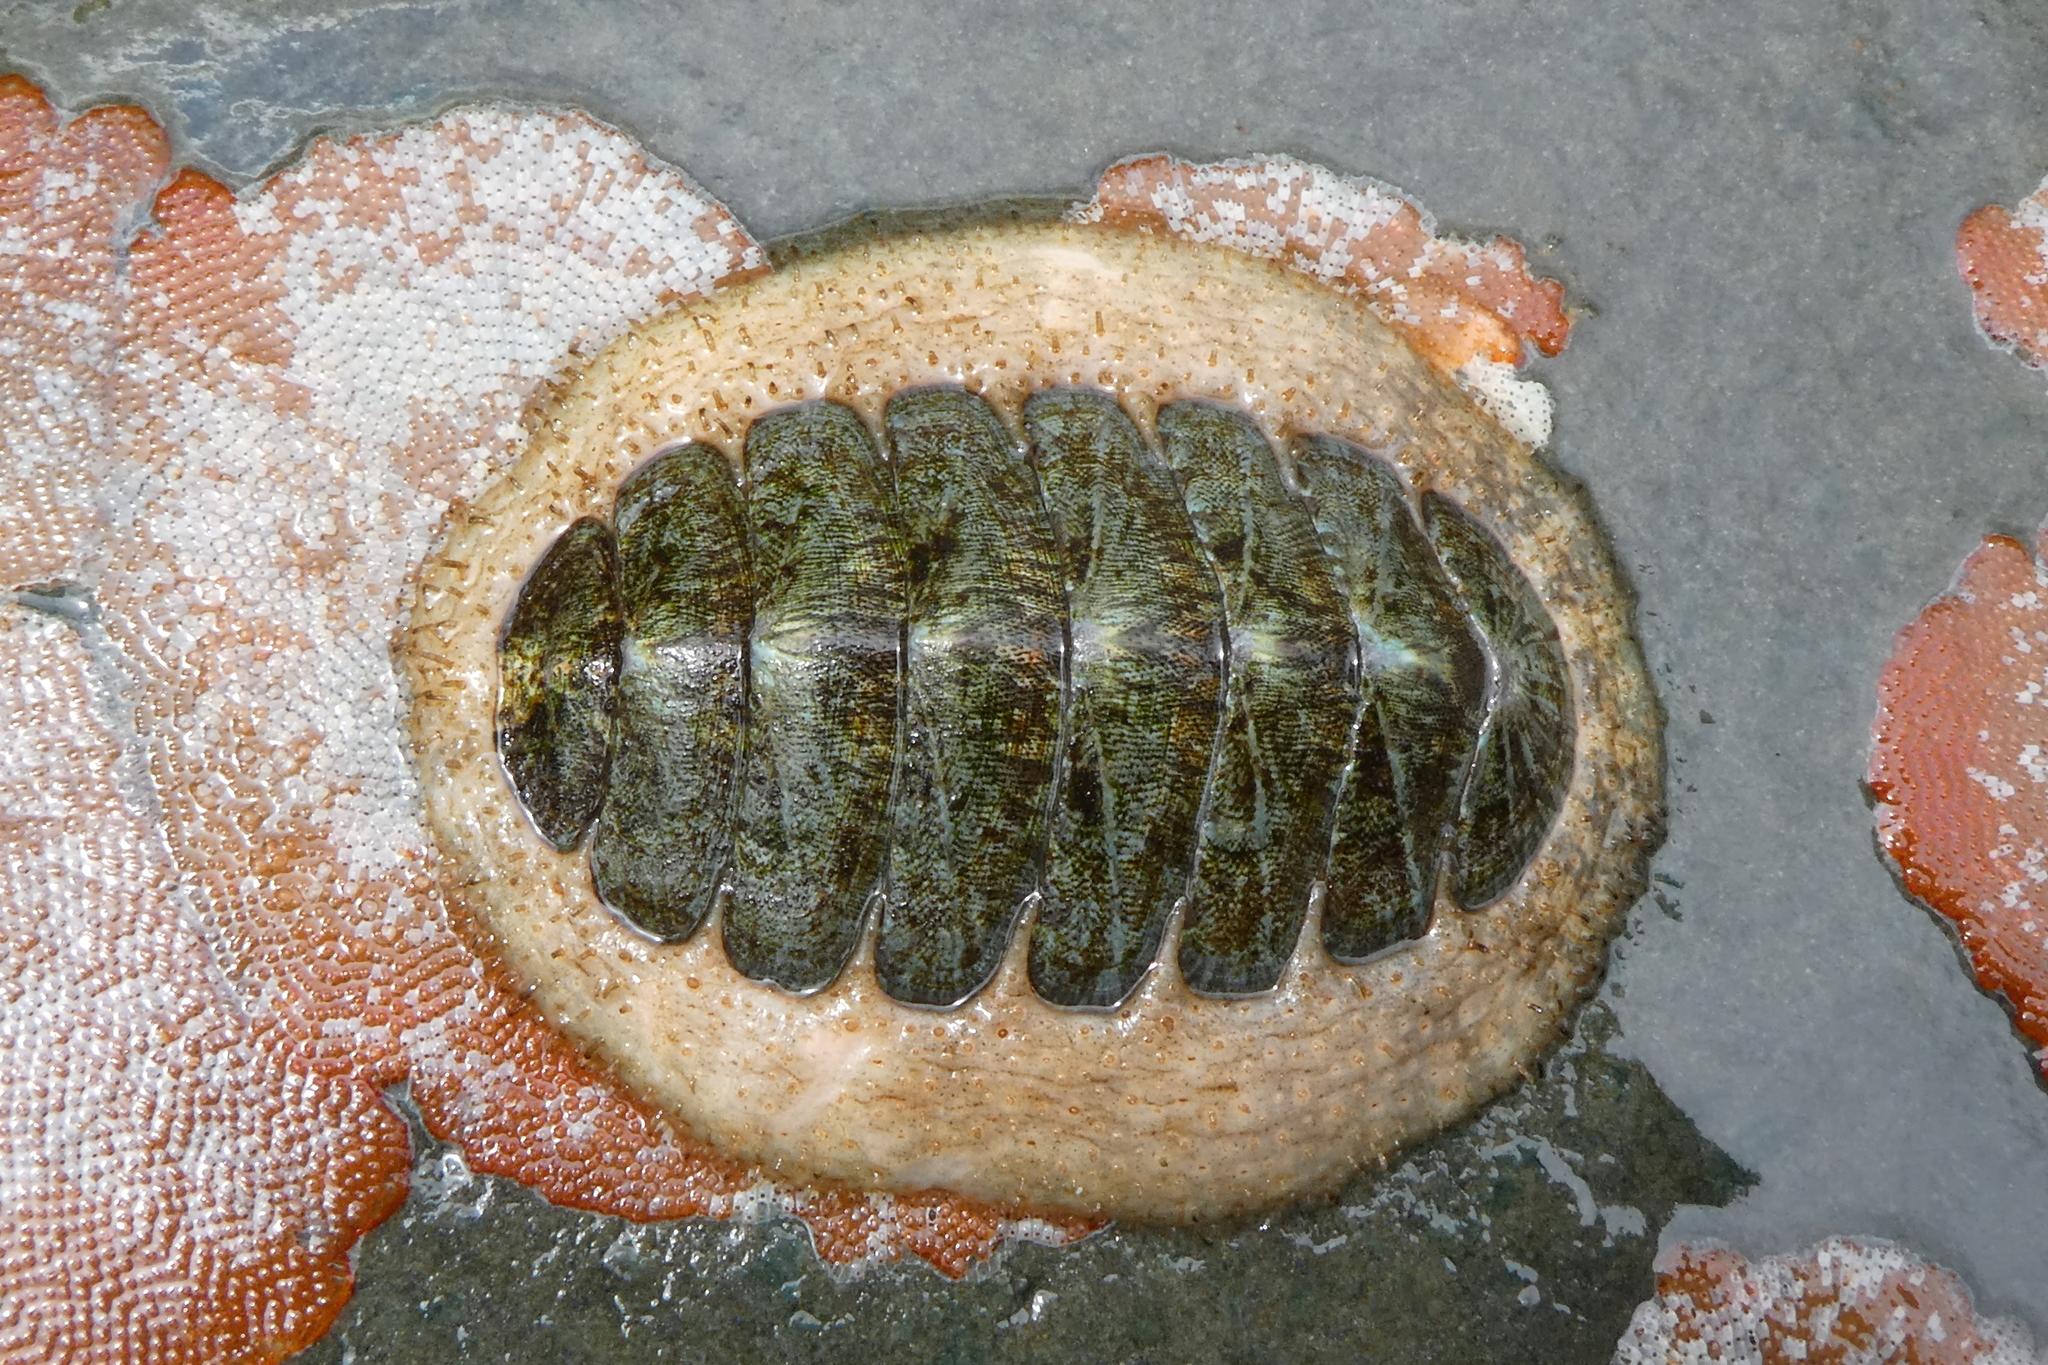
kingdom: Animalia
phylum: Mollusca
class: Polyplacophora
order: Chitonida
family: Mopaliidae
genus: Mopalia
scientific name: Mopalia lignosa
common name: Woody chiton
